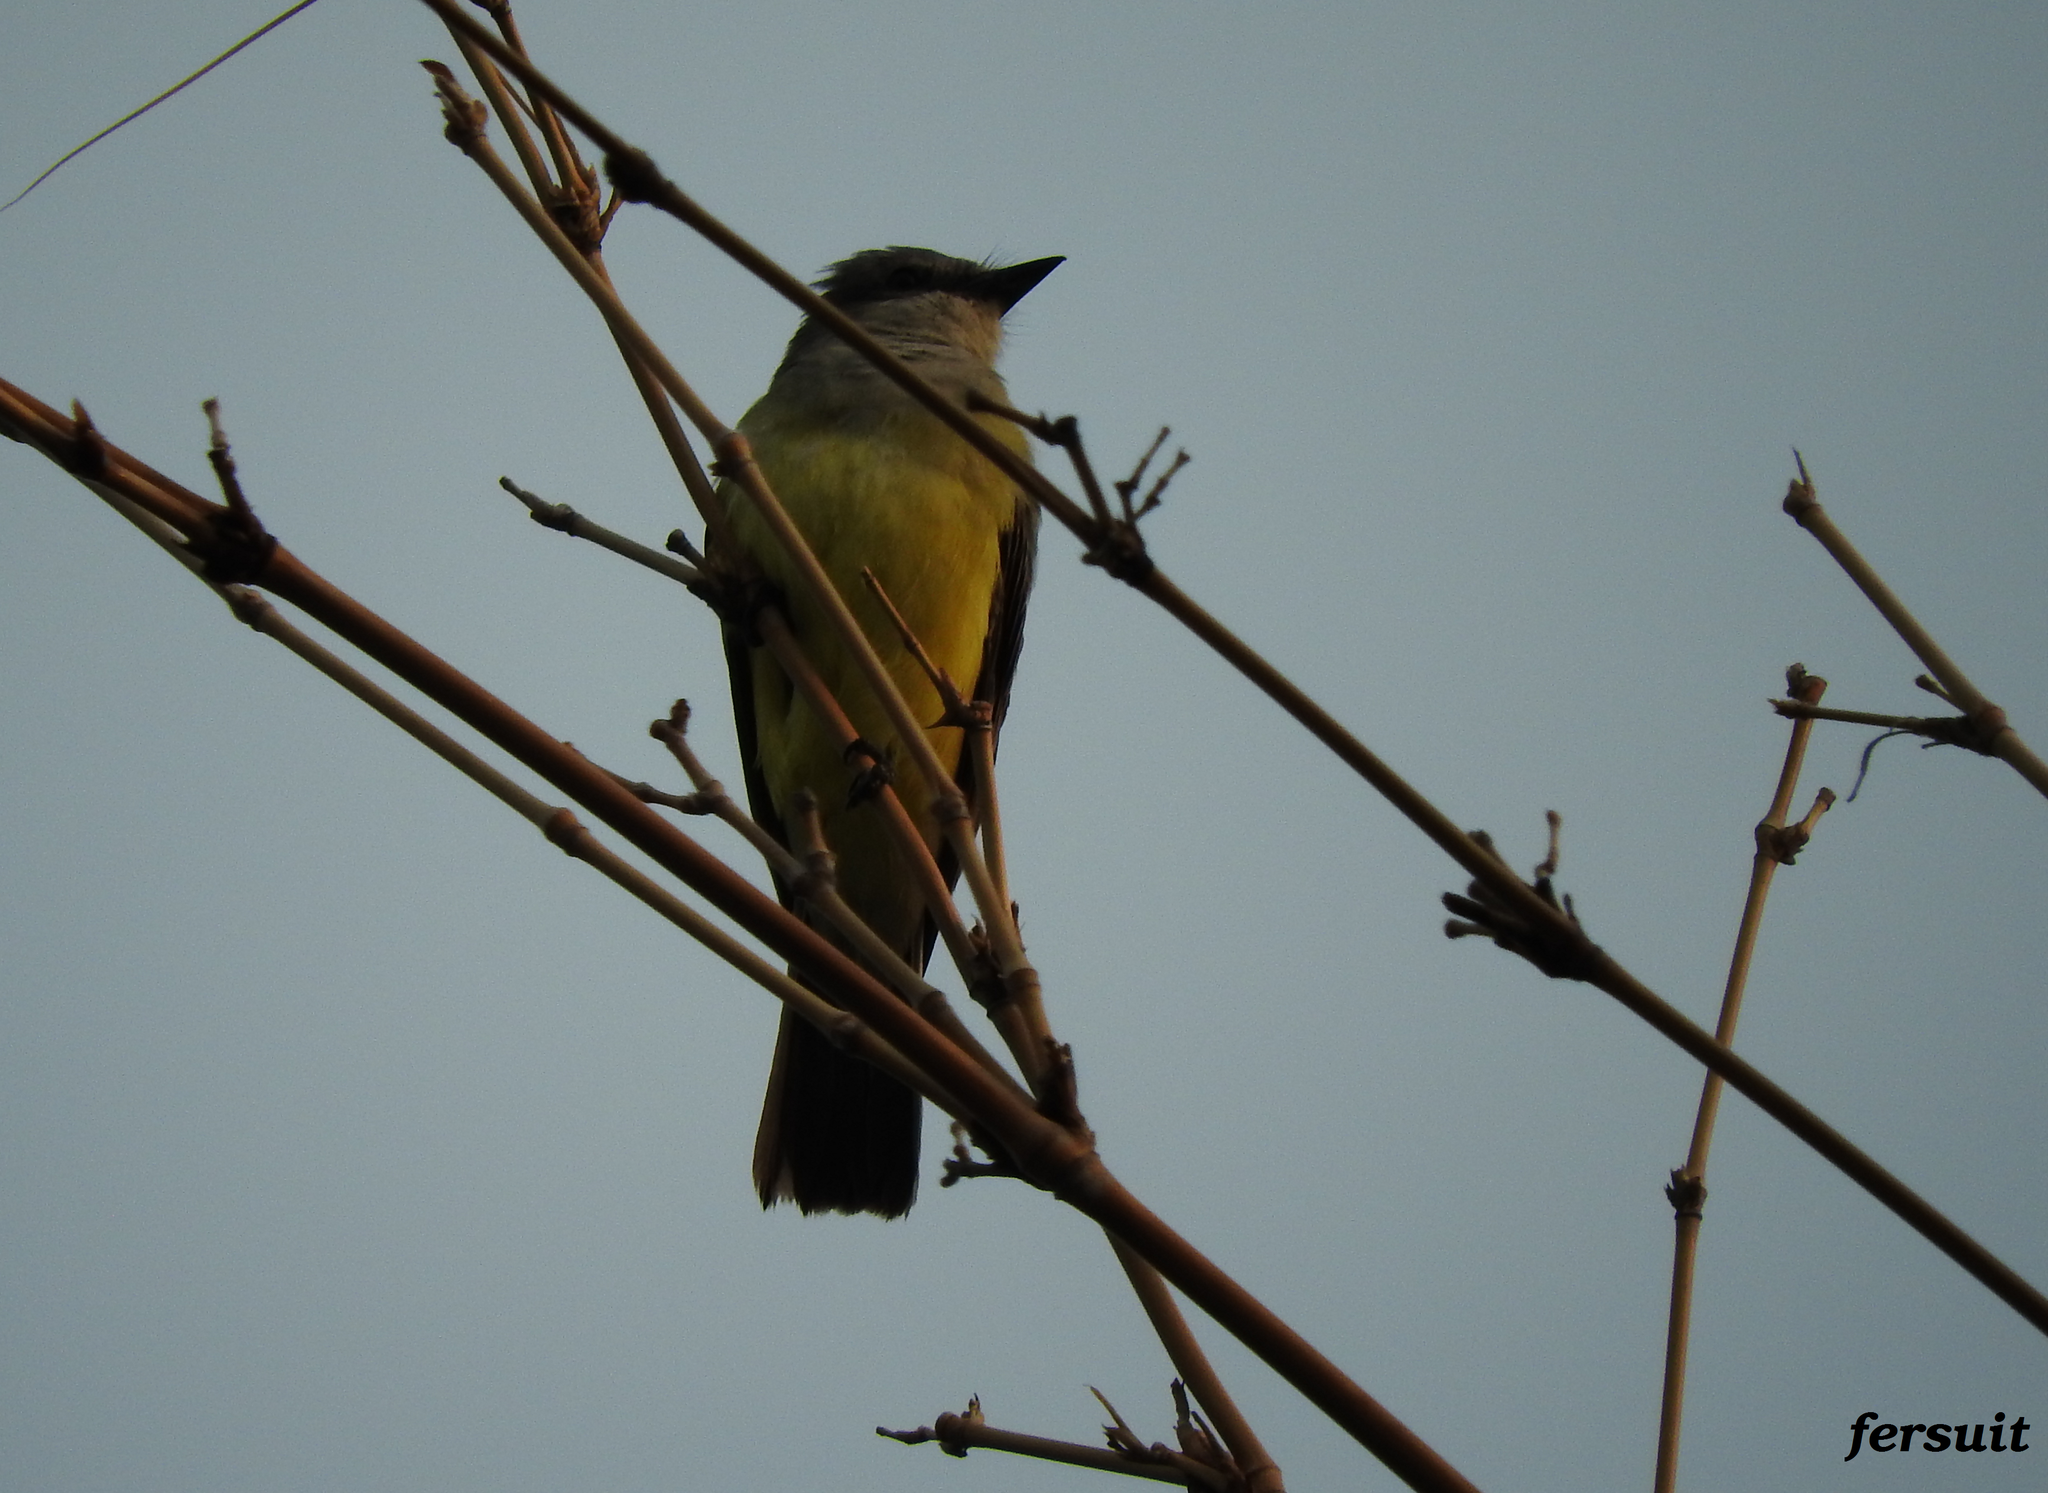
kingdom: Animalia
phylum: Chordata
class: Aves
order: Passeriformes
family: Tyrannidae
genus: Tyrannus
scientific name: Tyrannus verticalis
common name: Western kingbird
